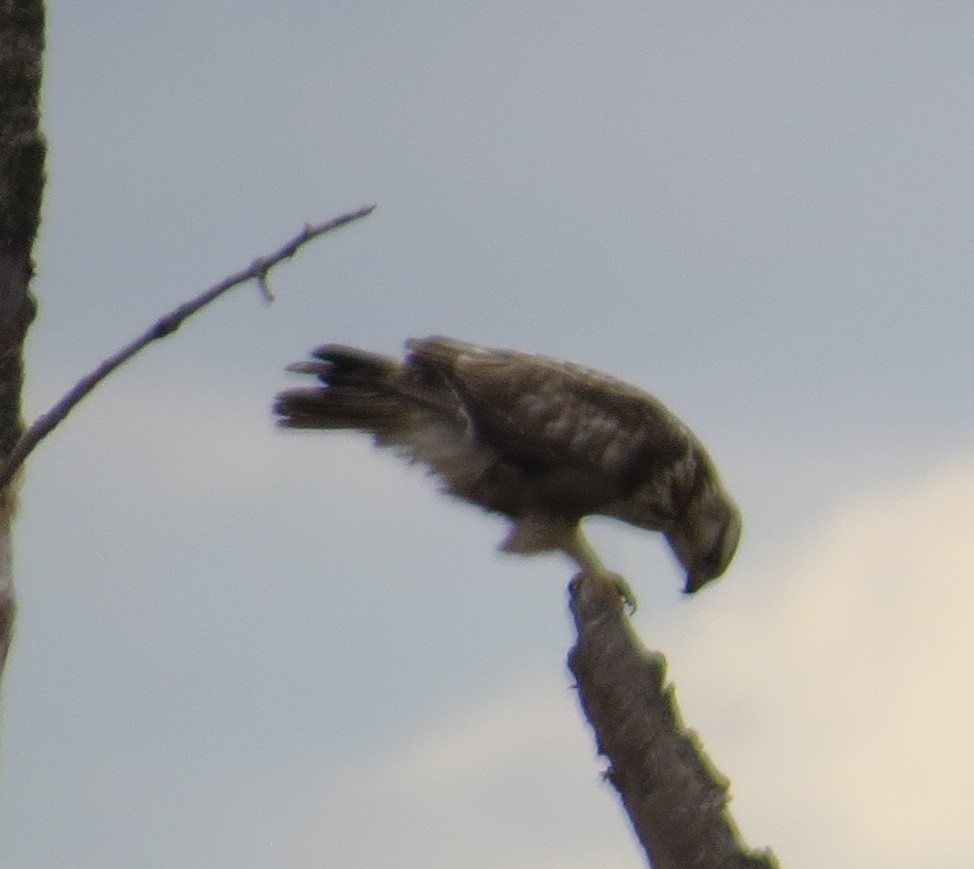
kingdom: Animalia
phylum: Chordata
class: Aves
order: Accipitriformes
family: Accipitridae
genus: Buteo
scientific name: Buteo lagopus
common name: Rough-legged buzzard
